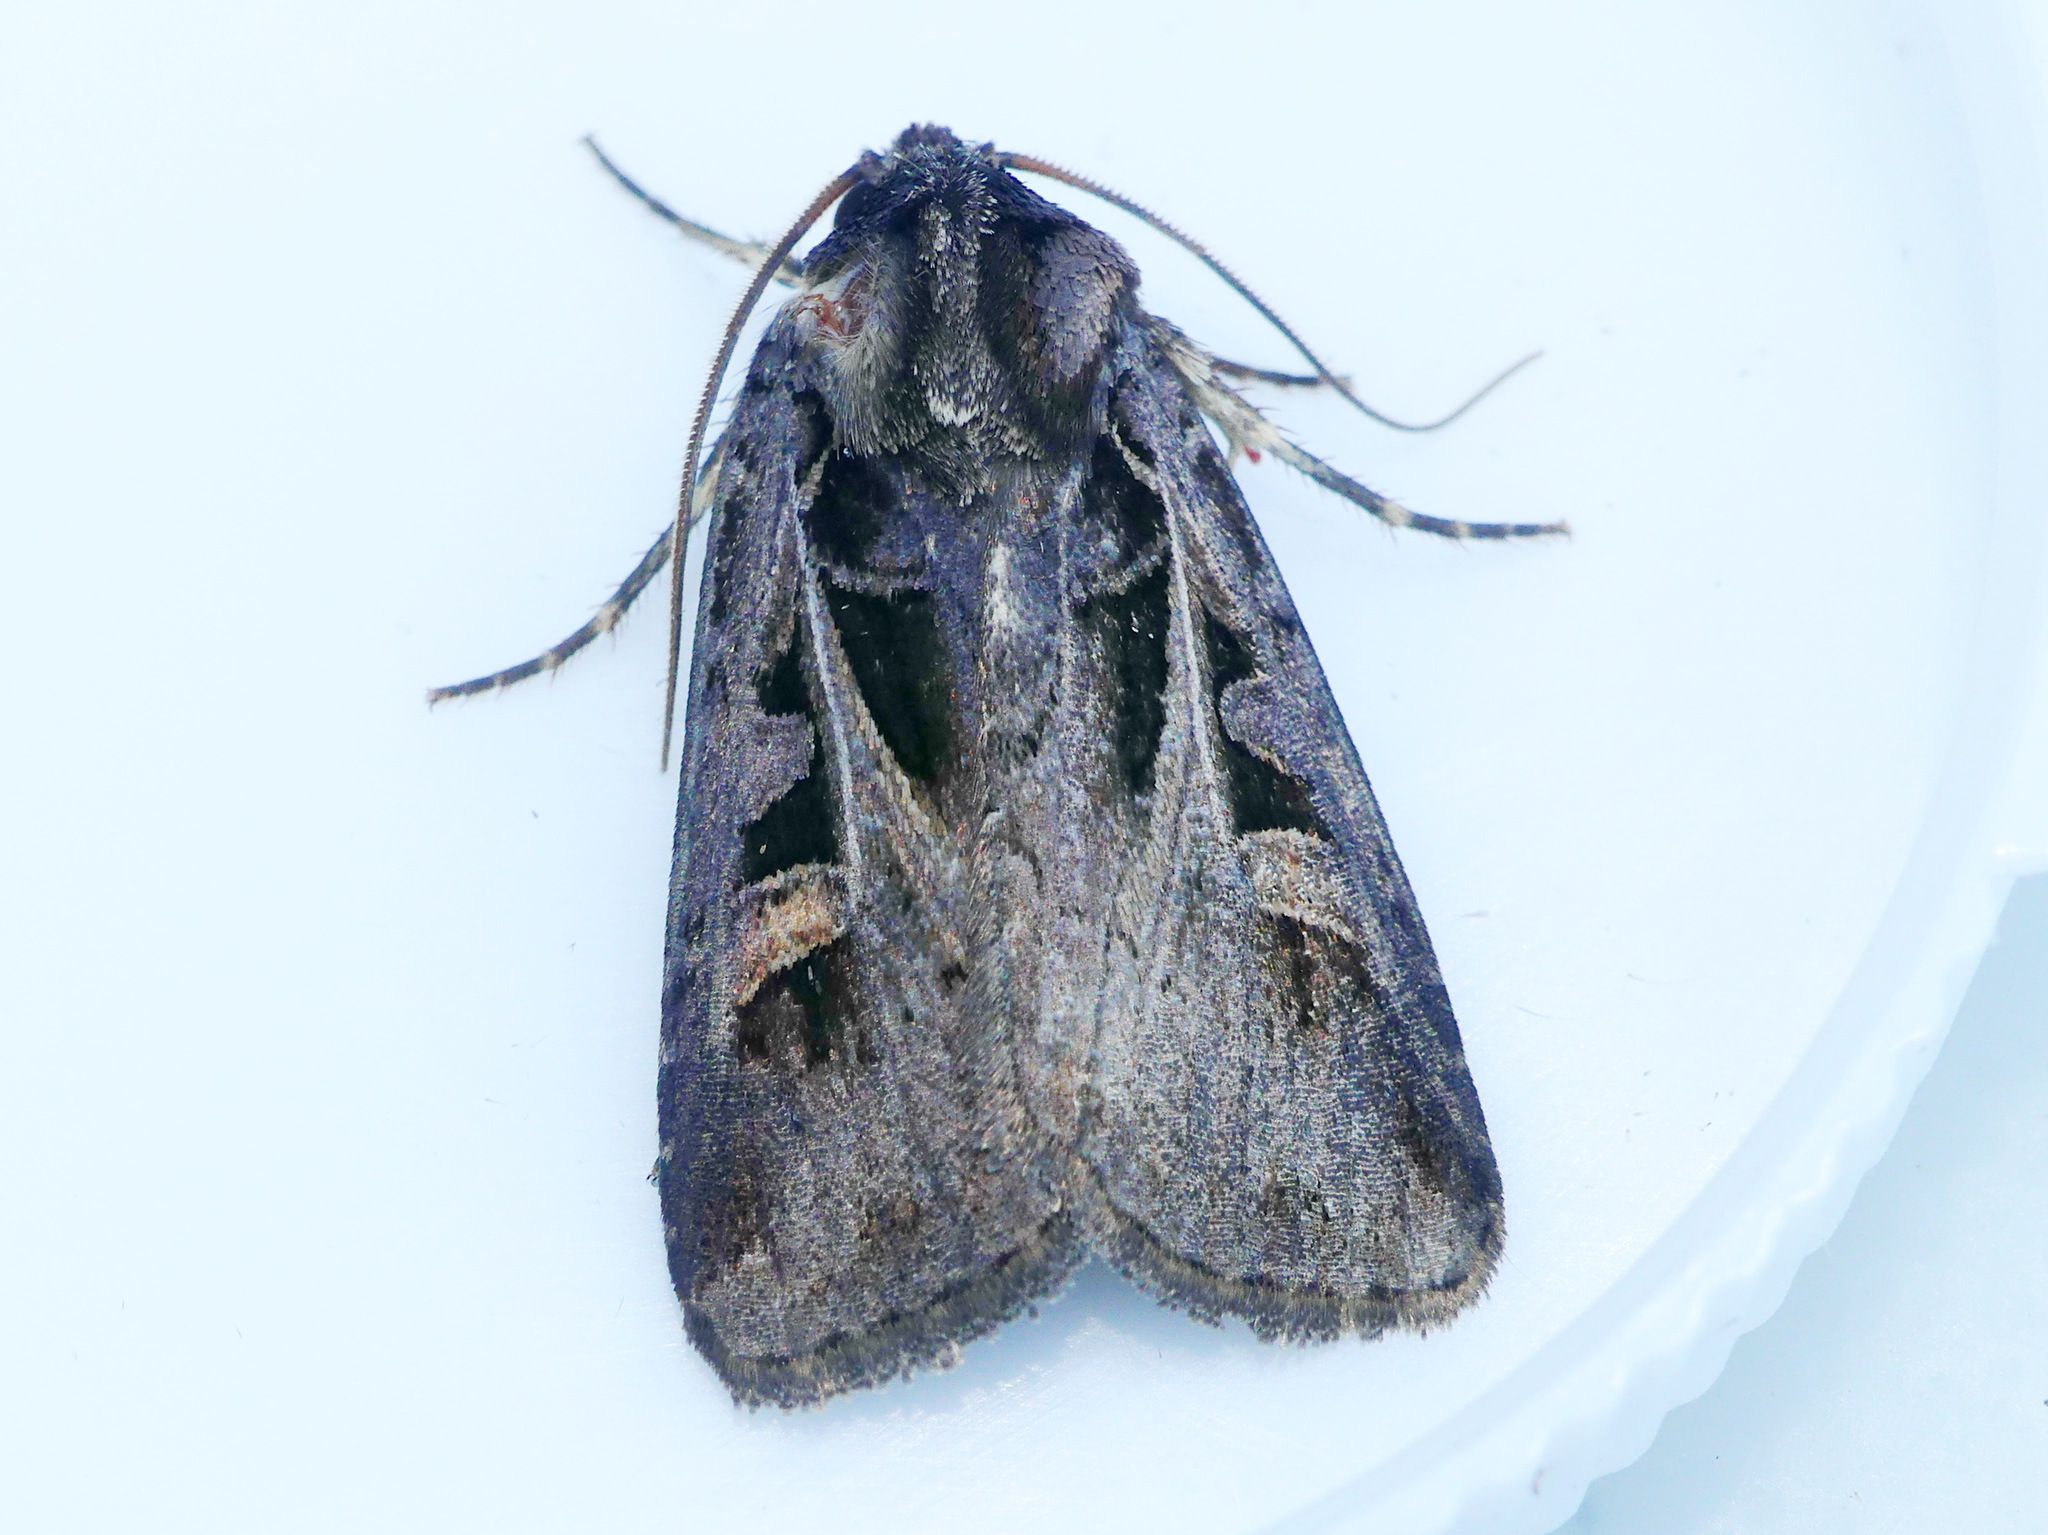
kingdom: Animalia
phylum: Arthropoda
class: Insecta
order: Lepidoptera
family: Noctuidae
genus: Feltia
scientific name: Feltia herilis
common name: Master's dart
